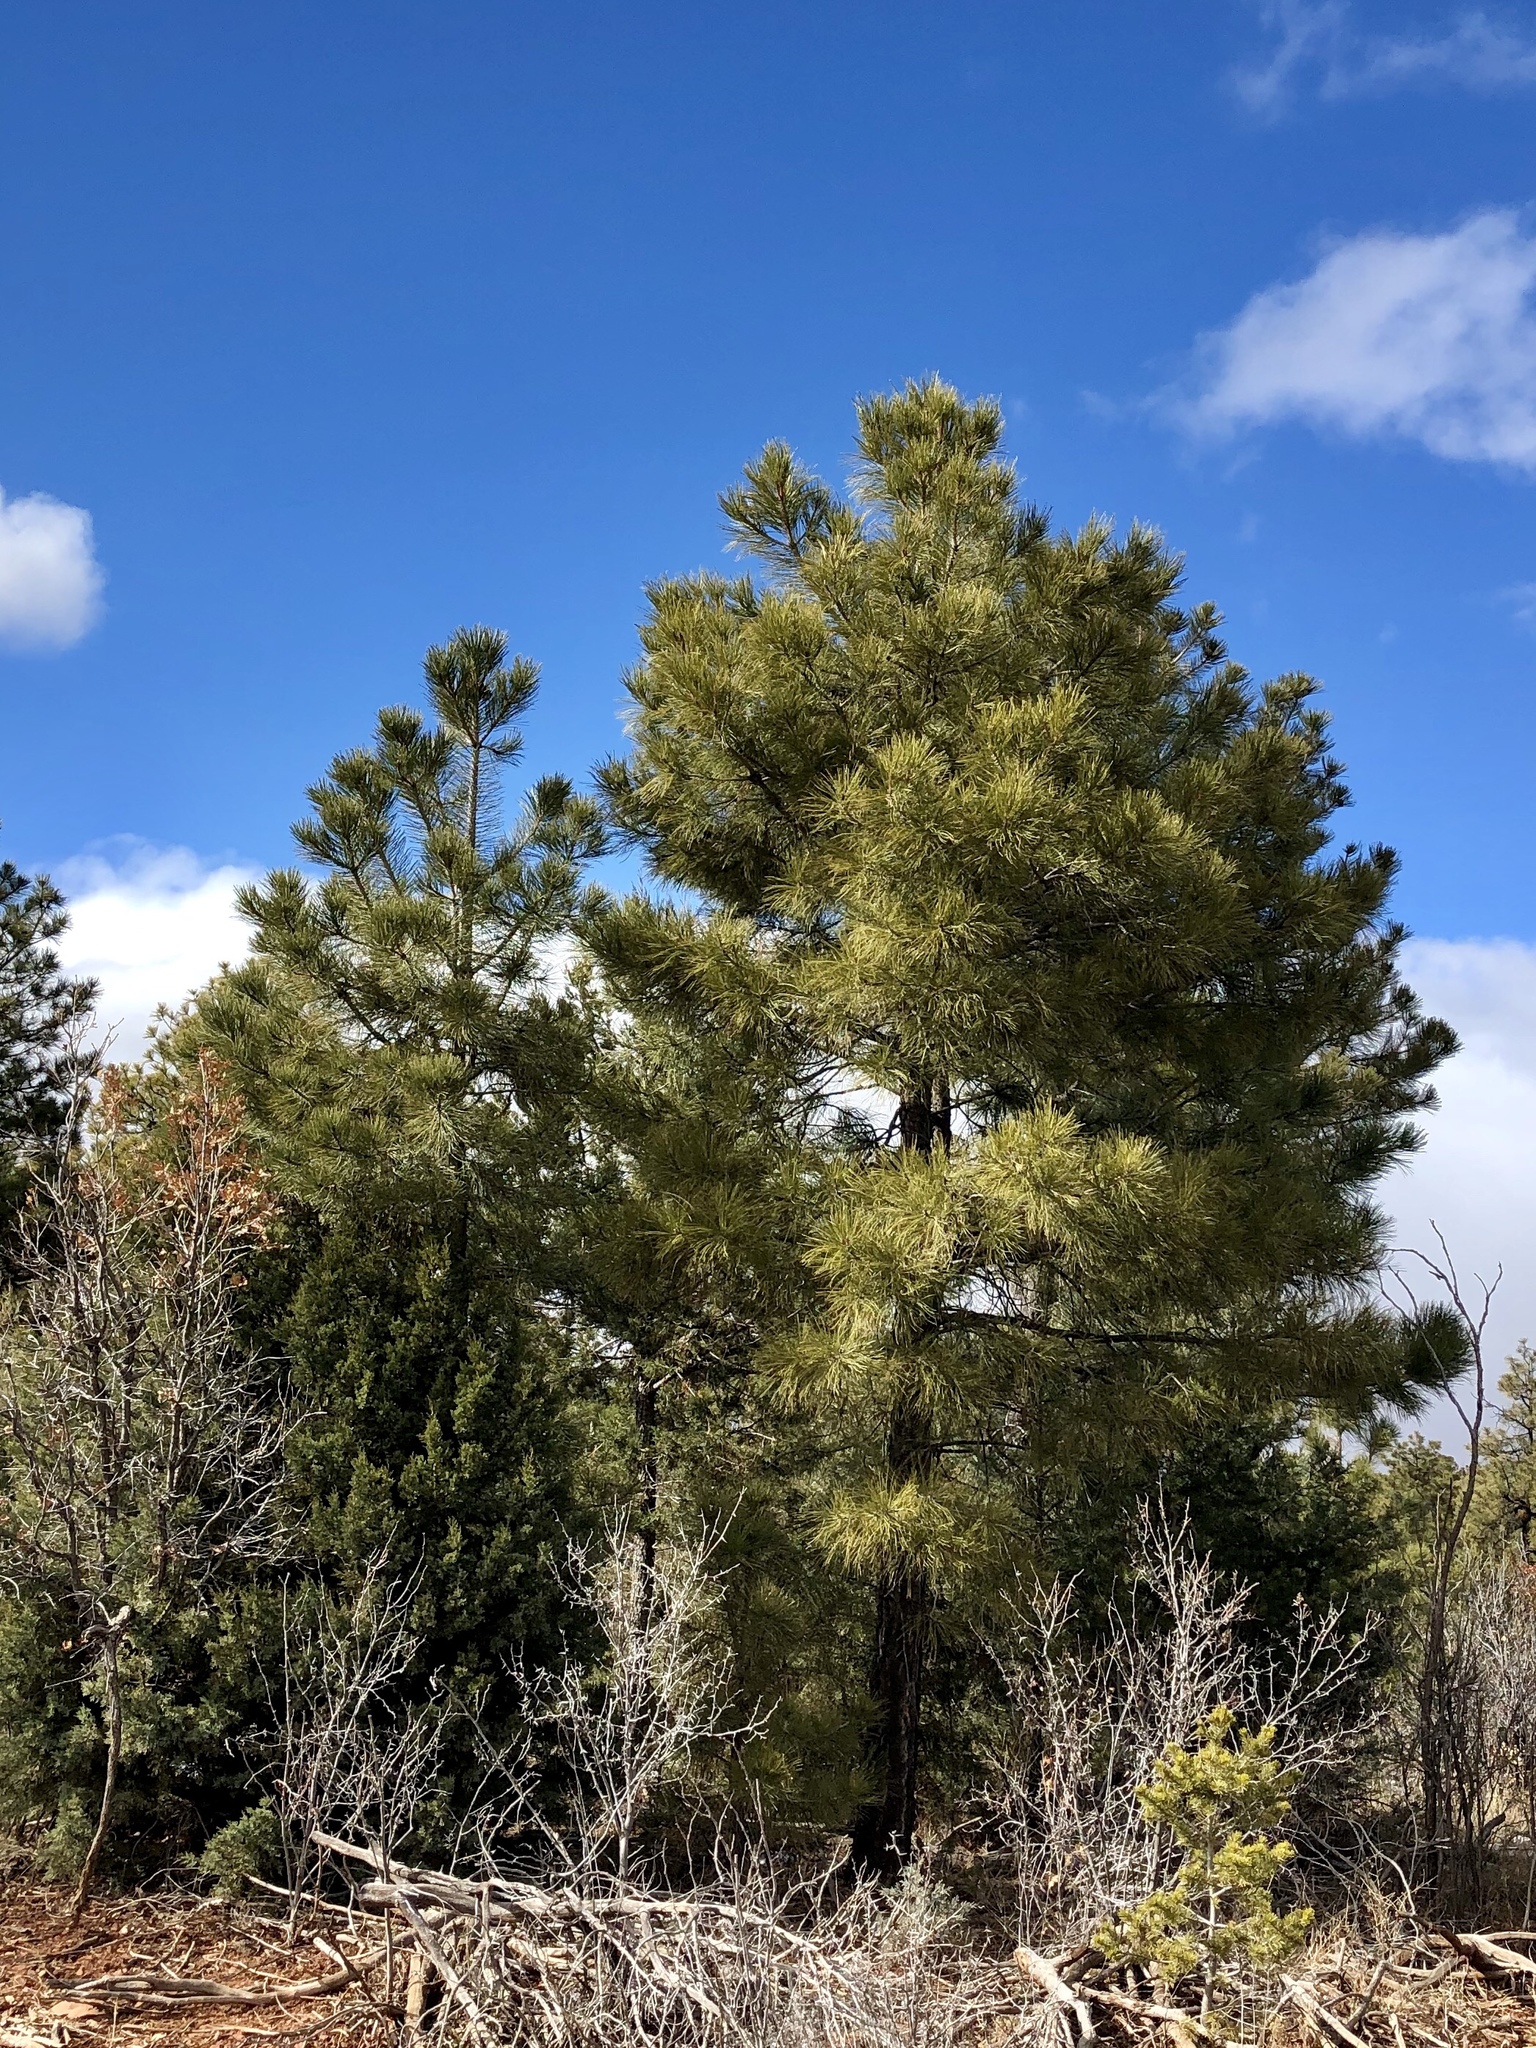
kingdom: Plantae
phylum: Tracheophyta
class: Pinopsida
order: Pinales
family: Pinaceae
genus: Pinus
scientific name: Pinus ponderosa
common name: Western yellow-pine
